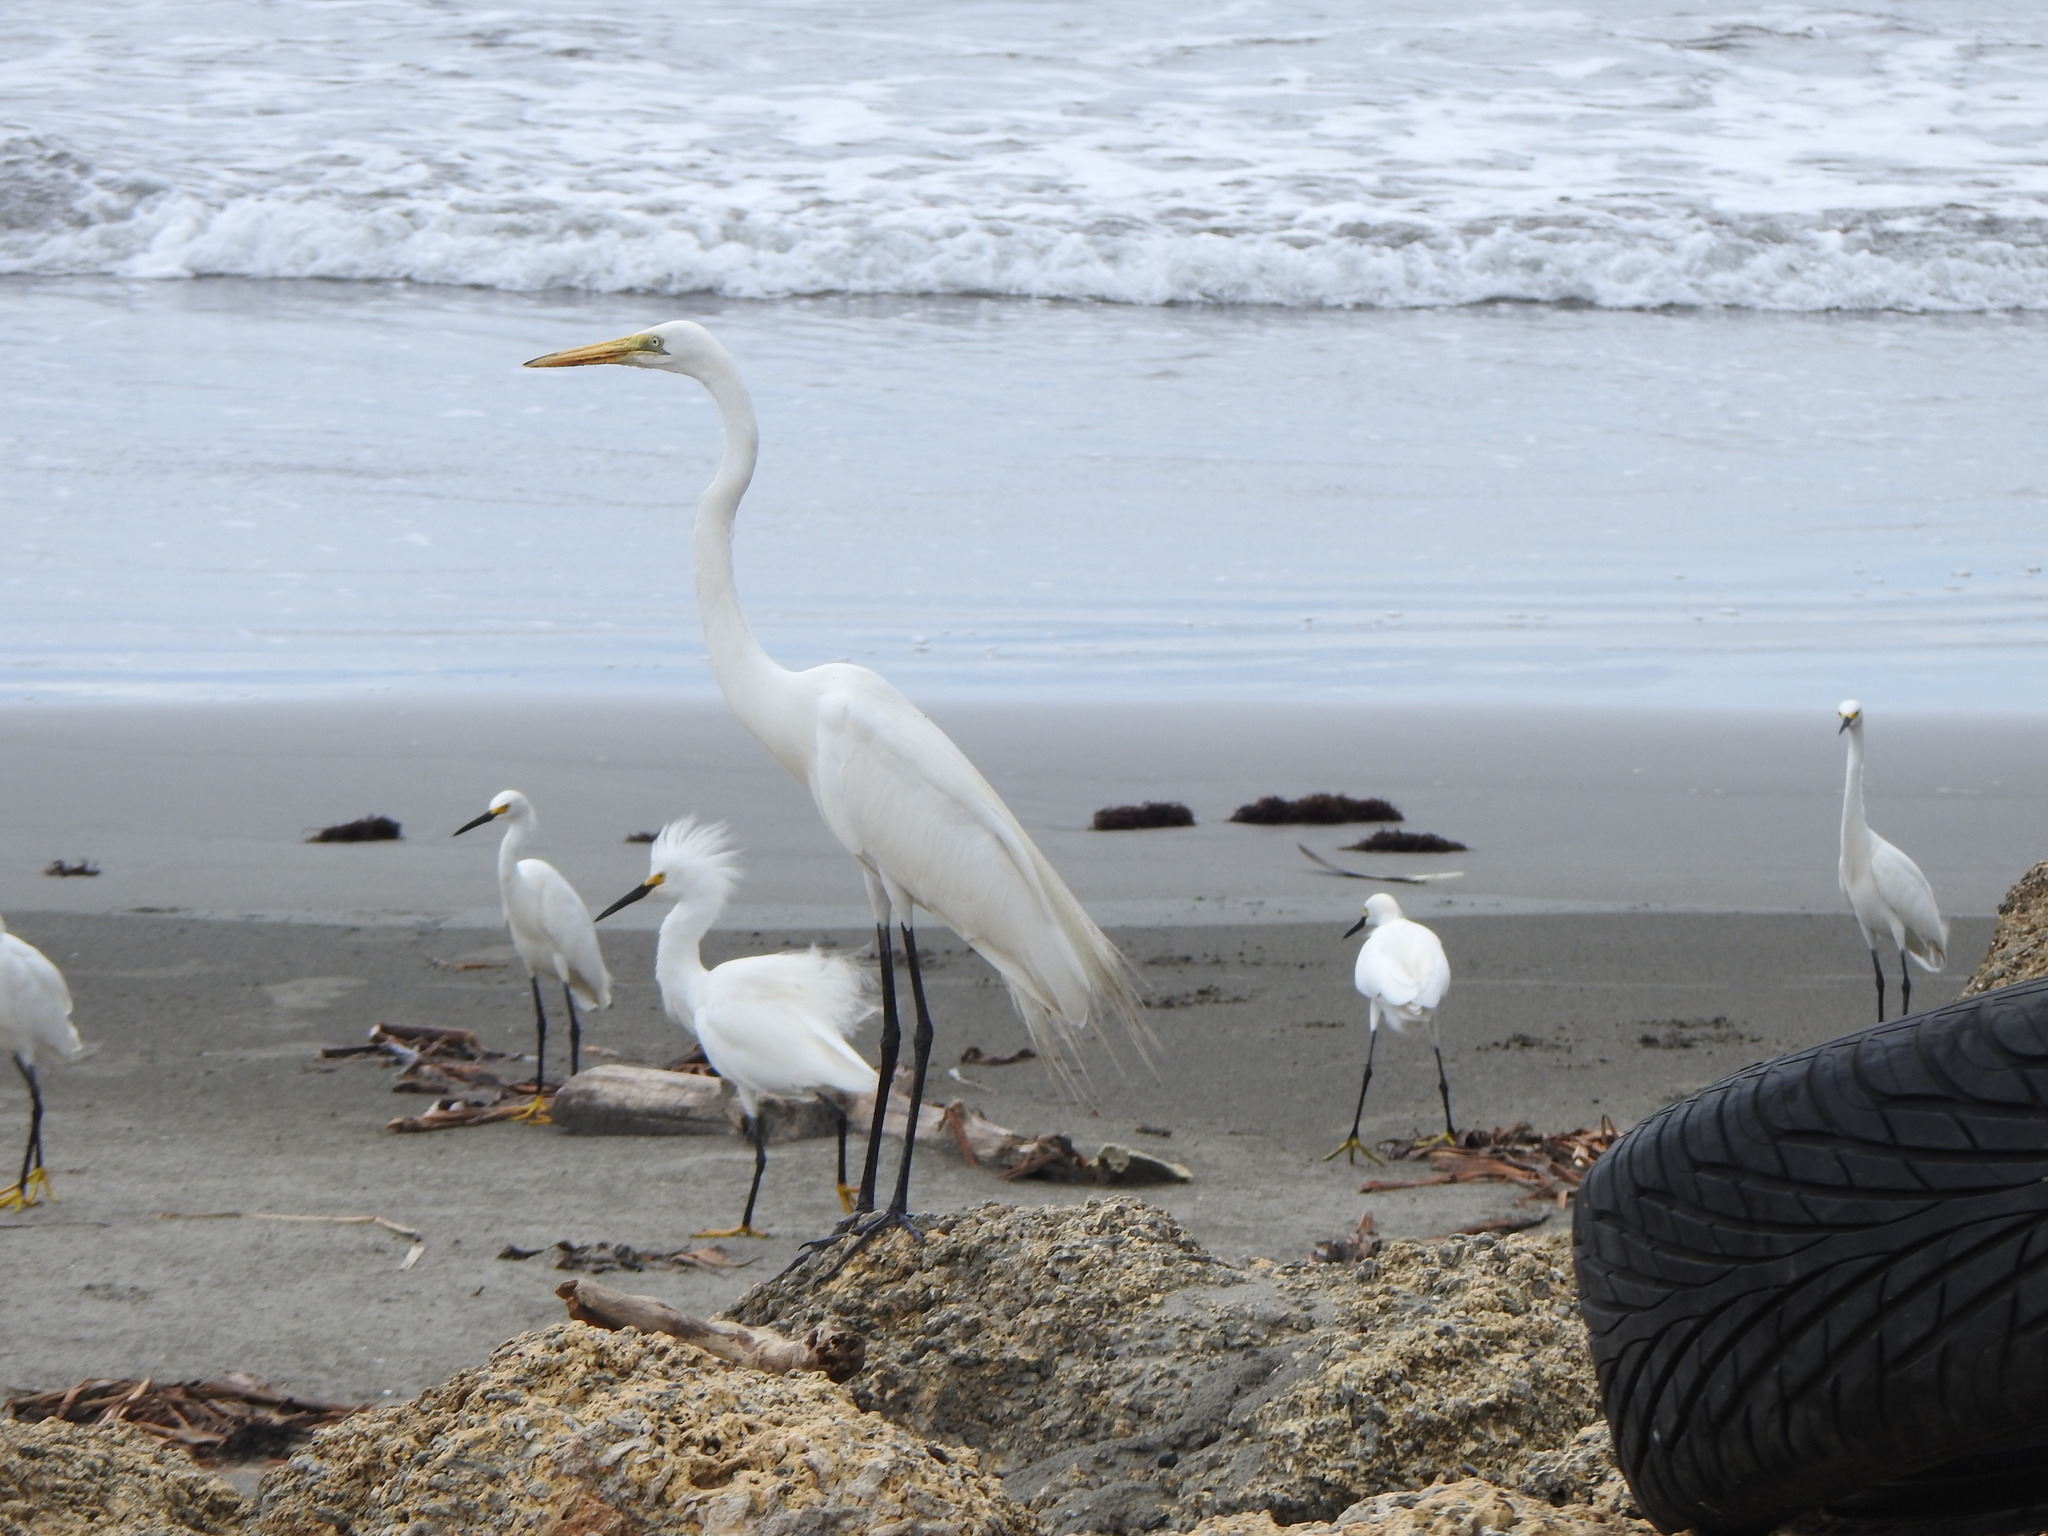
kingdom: Animalia
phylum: Chordata
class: Aves
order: Pelecaniformes
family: Ardeidae
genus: Ardea
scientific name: Ardea alba
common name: Great egret
